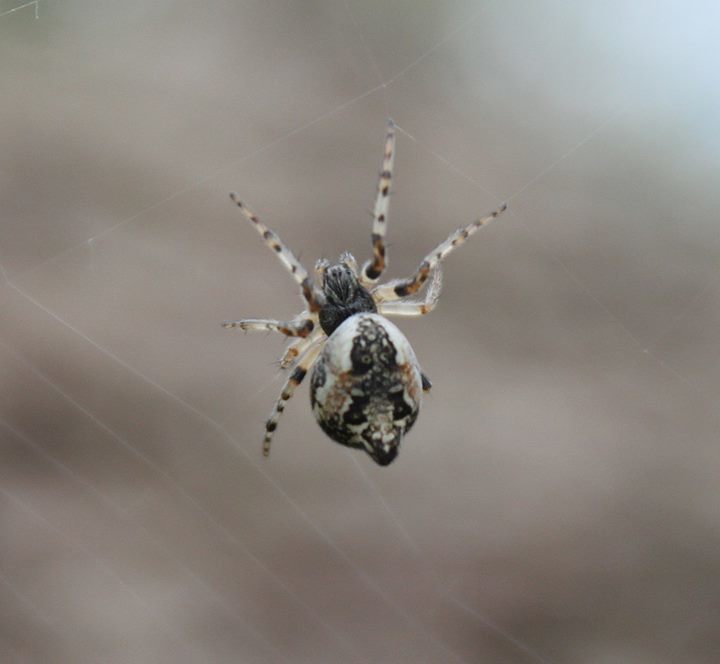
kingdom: Animalia
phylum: Arthropoda
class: Arachnida
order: Araneae
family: Araneidae
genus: Cyclosa
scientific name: Cyclosa conica
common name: Conical trashline orbweaver
